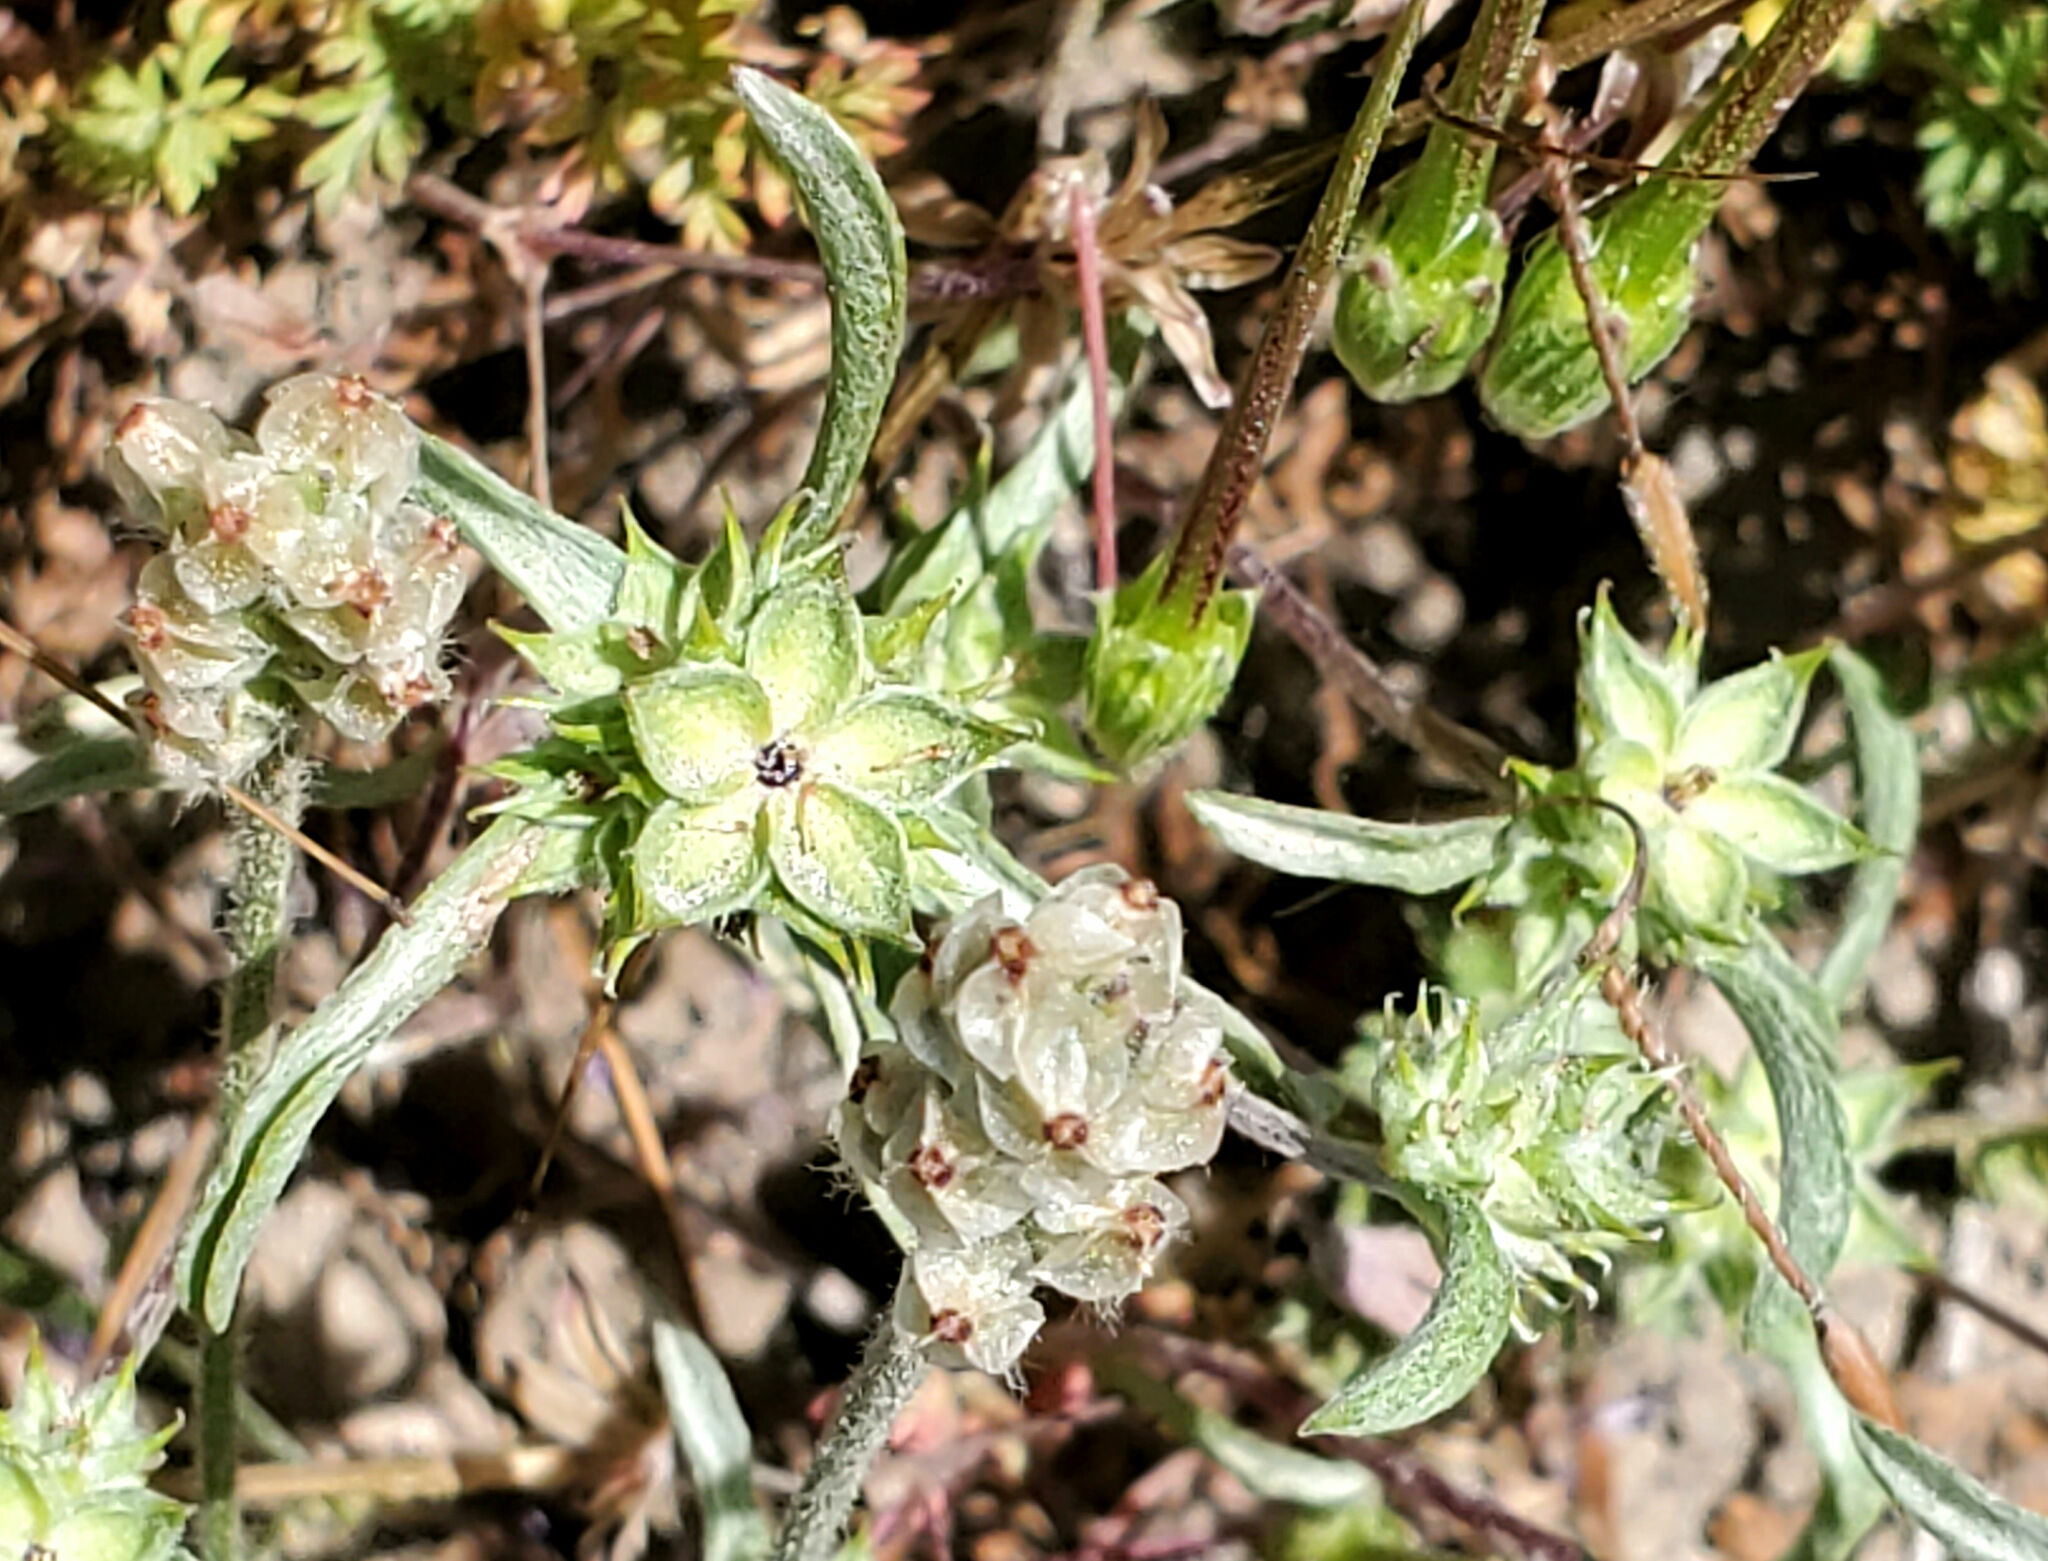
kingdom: Plantae
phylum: Tracheophyta
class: Magnoliopsida
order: Asterales
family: Asteraceae
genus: Ancistrocarphus
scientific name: Ancistrocarphus filagineus
